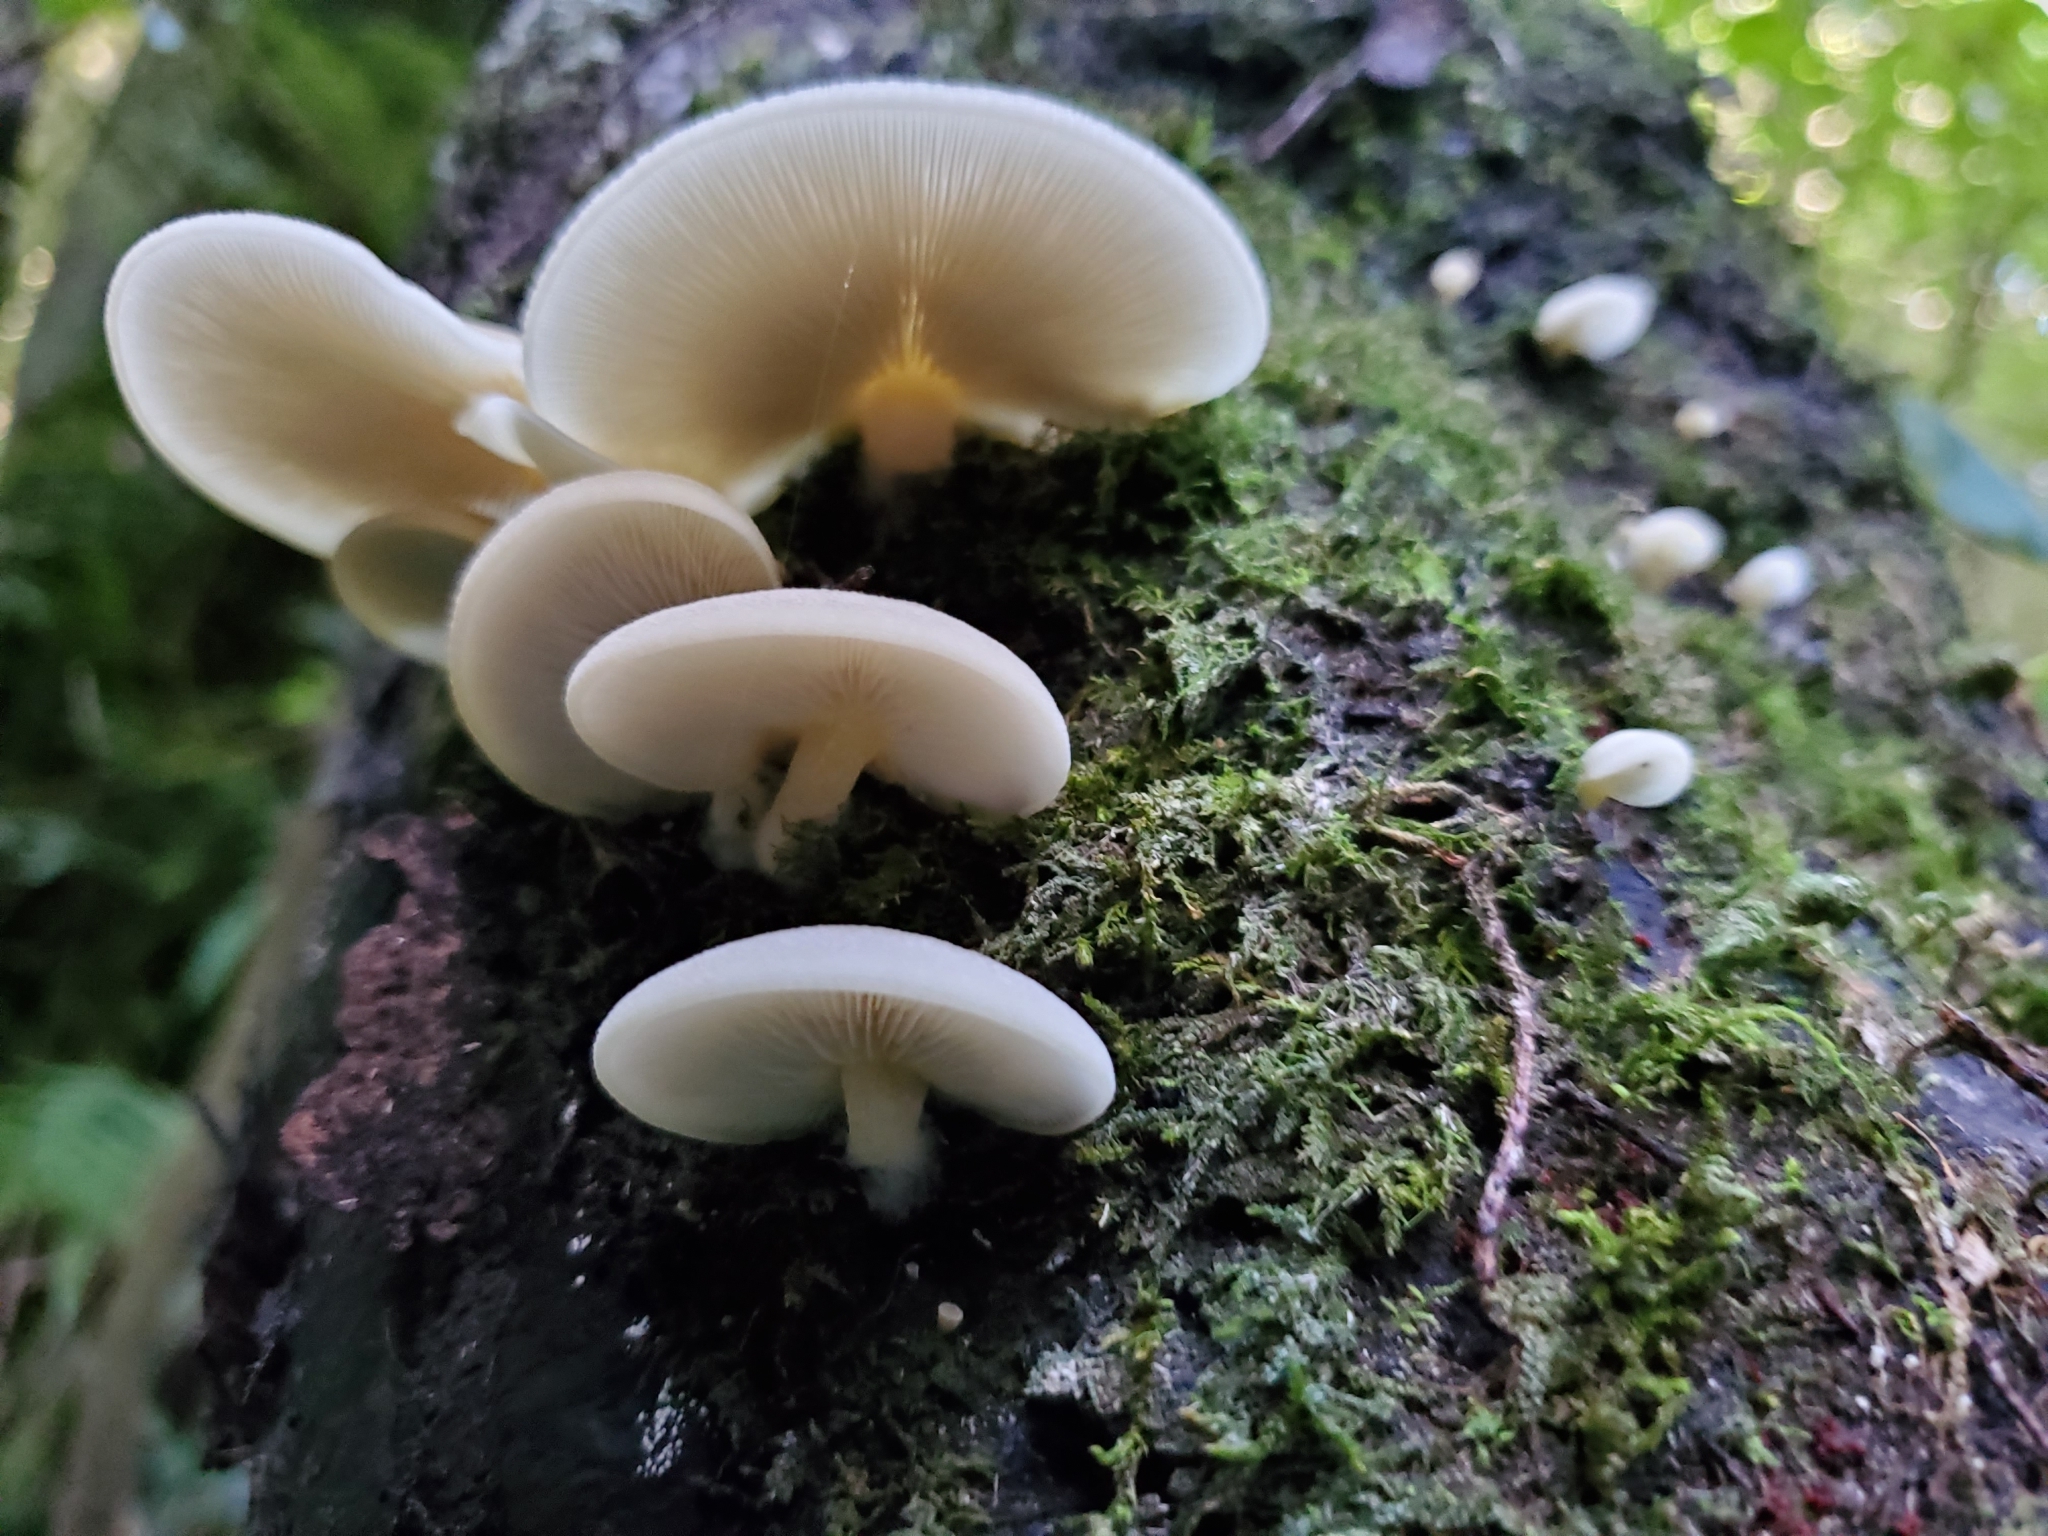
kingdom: Fungi
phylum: Basidiomycota
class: Agaricomycetes
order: Agaricales
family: Tricholomataceae
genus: Conchomyces
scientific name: Conchomyces bursiformis
